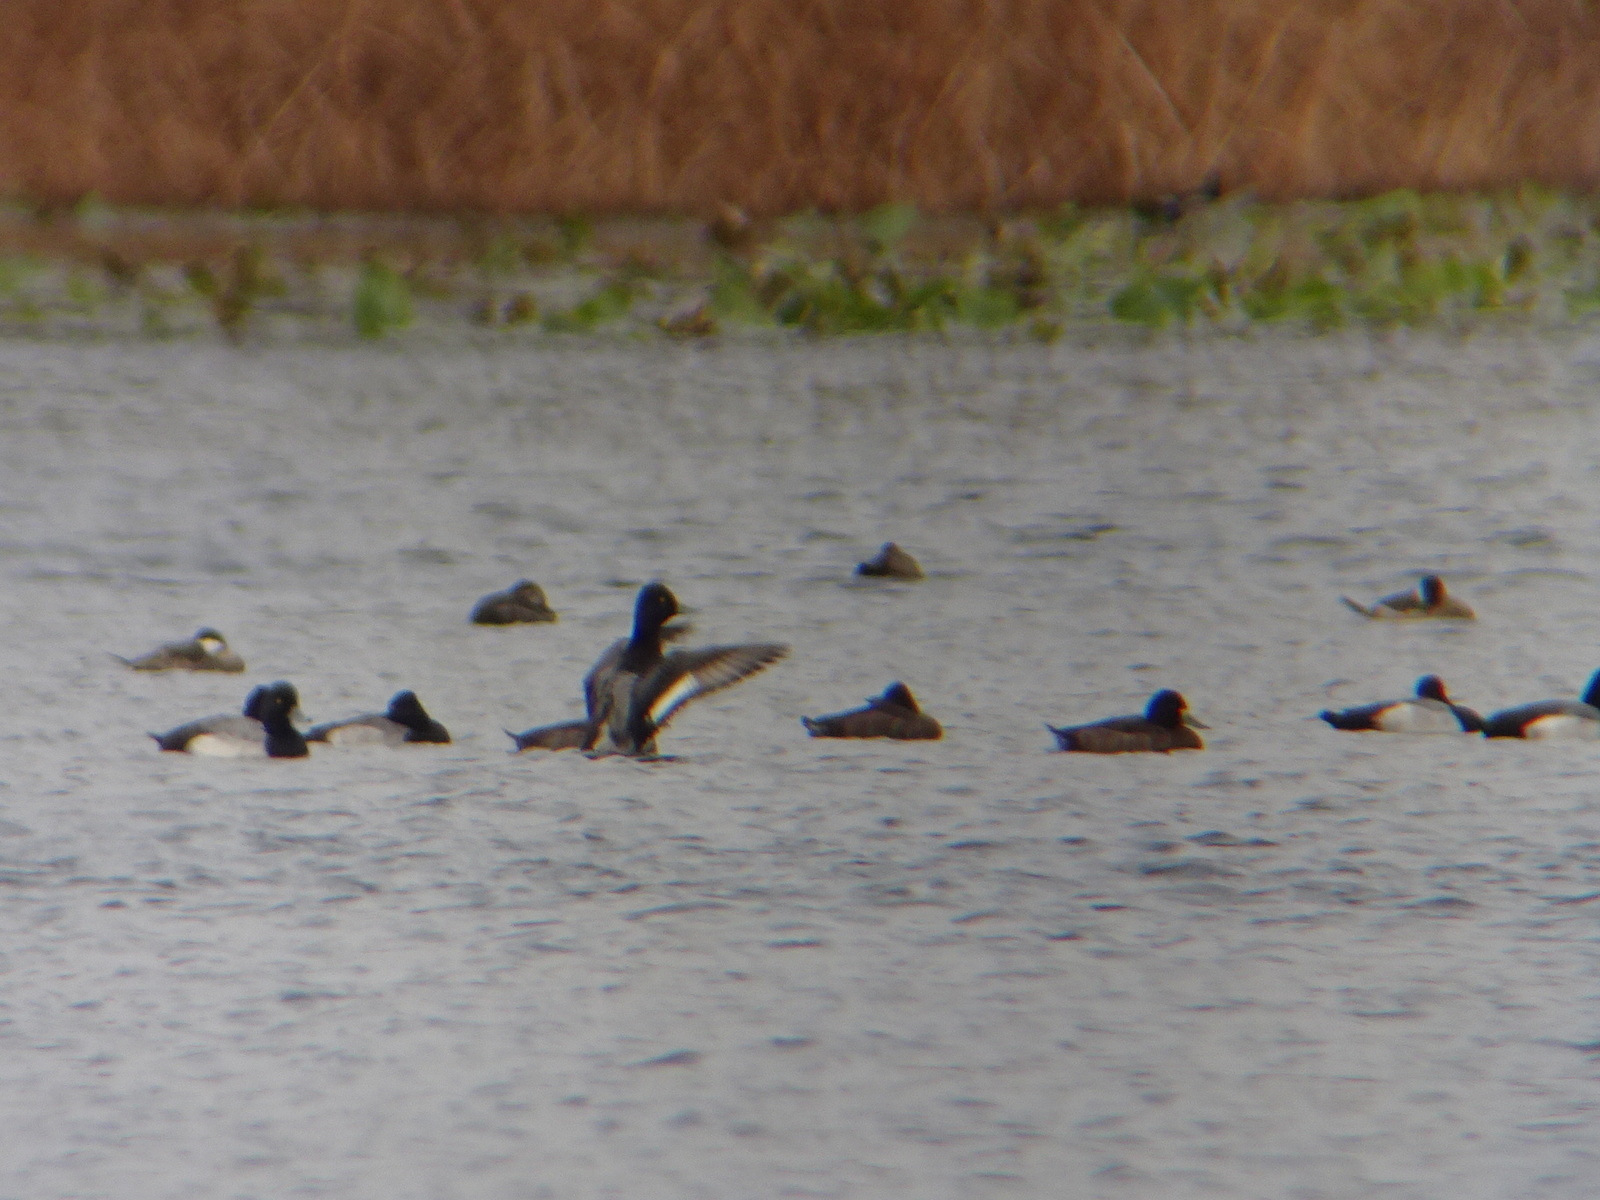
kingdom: Animalia
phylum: Chordata
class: Aves
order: Anseriformes
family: Anatidae
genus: Aythya
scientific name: Aythya affinis
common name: Lesser scaup
